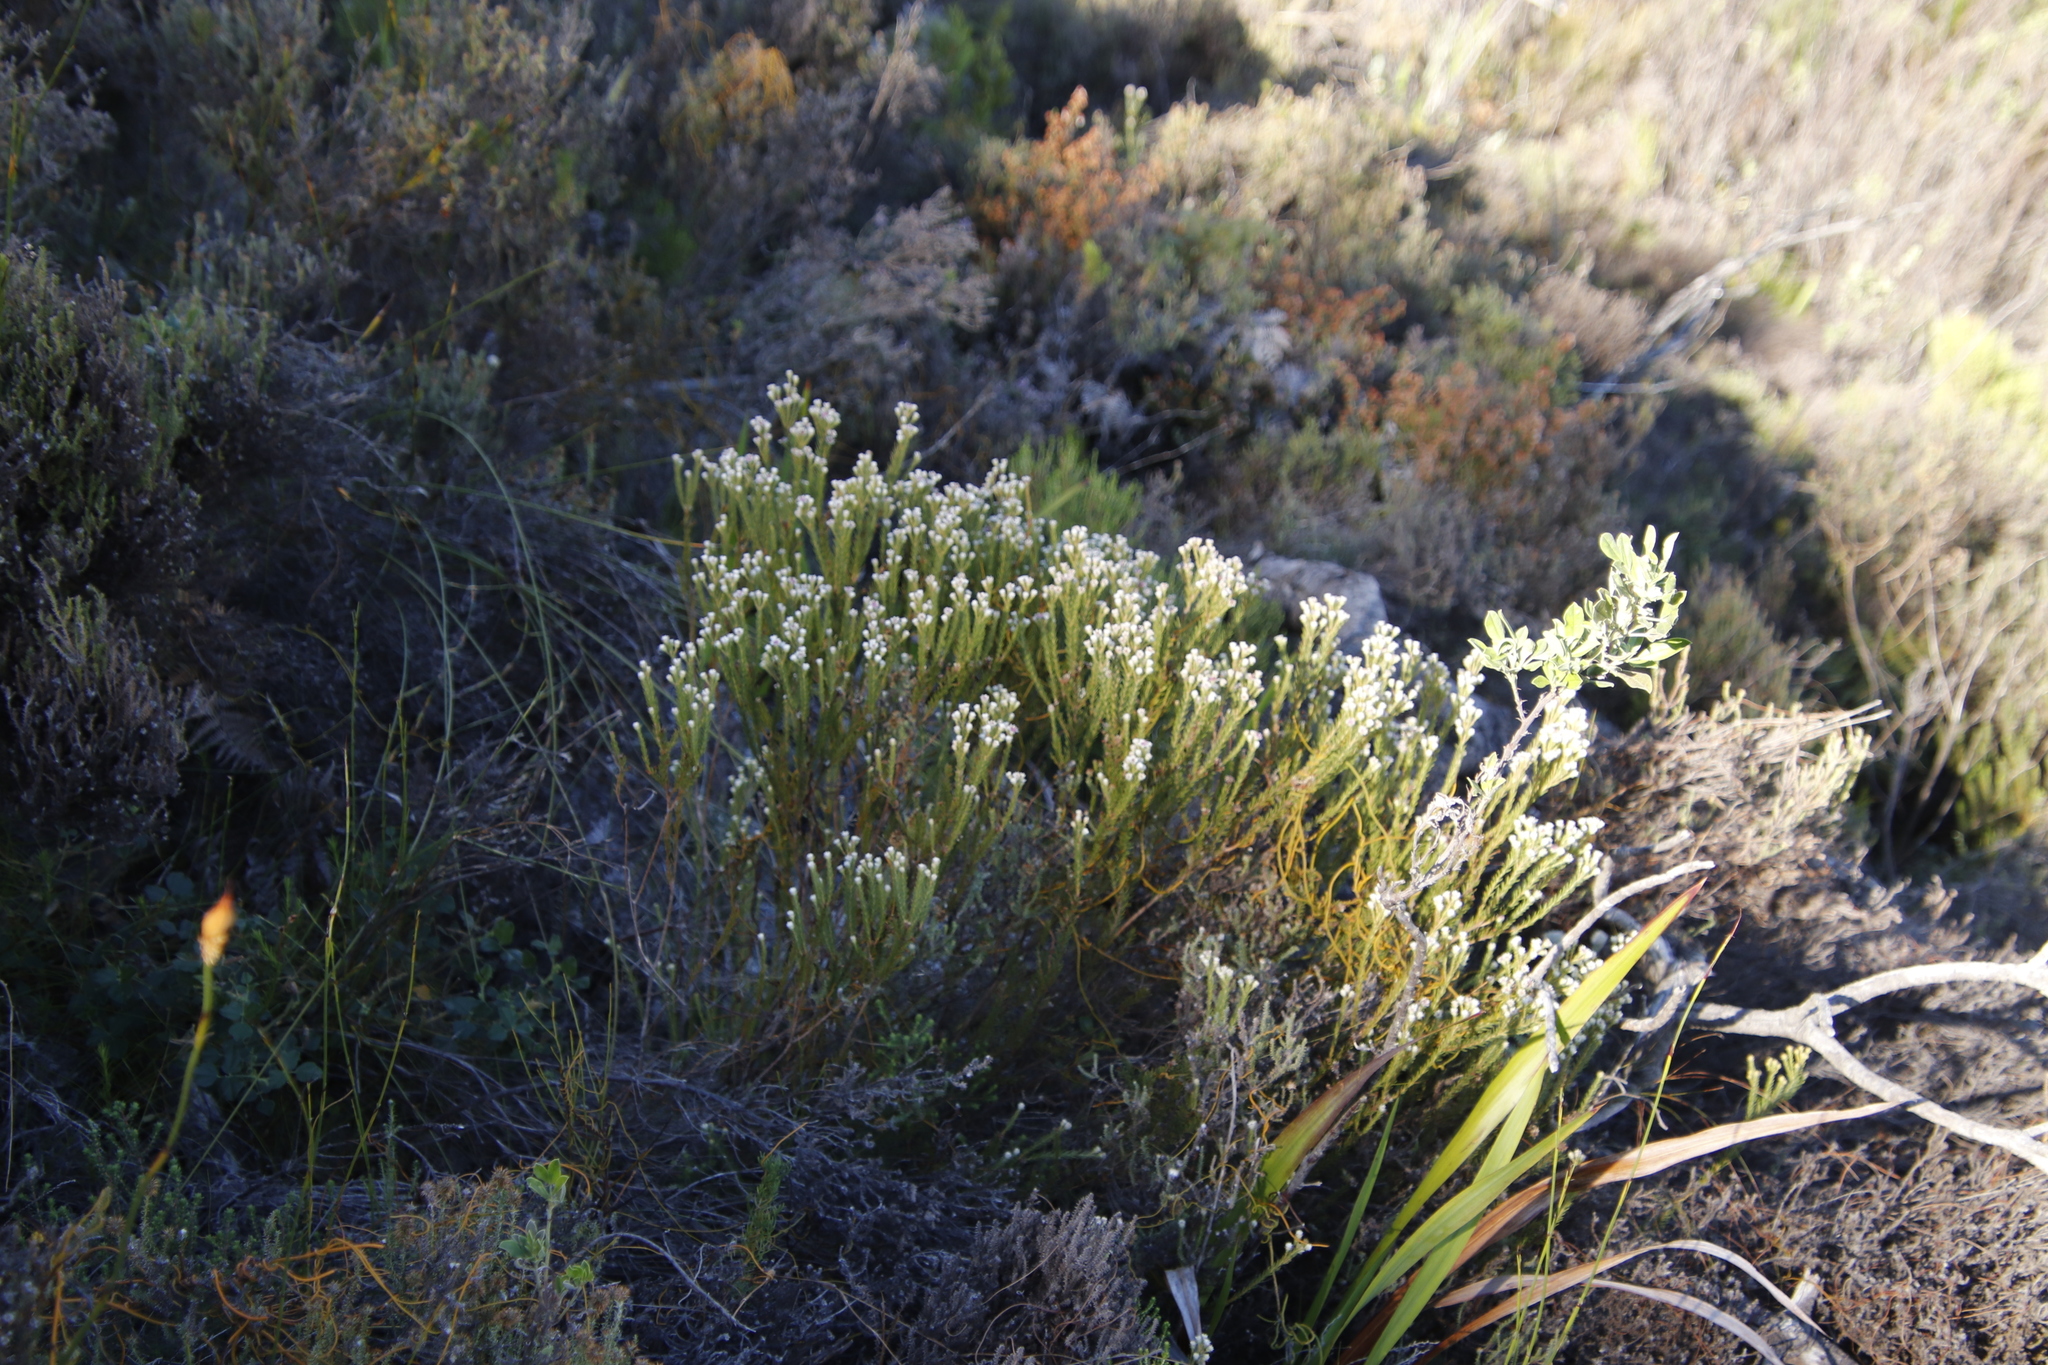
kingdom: Plantae
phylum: Tracheophyta
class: Magnoliopsida
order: Bruniales
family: Bruniaceae
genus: Staavia
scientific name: Staavia radiata
